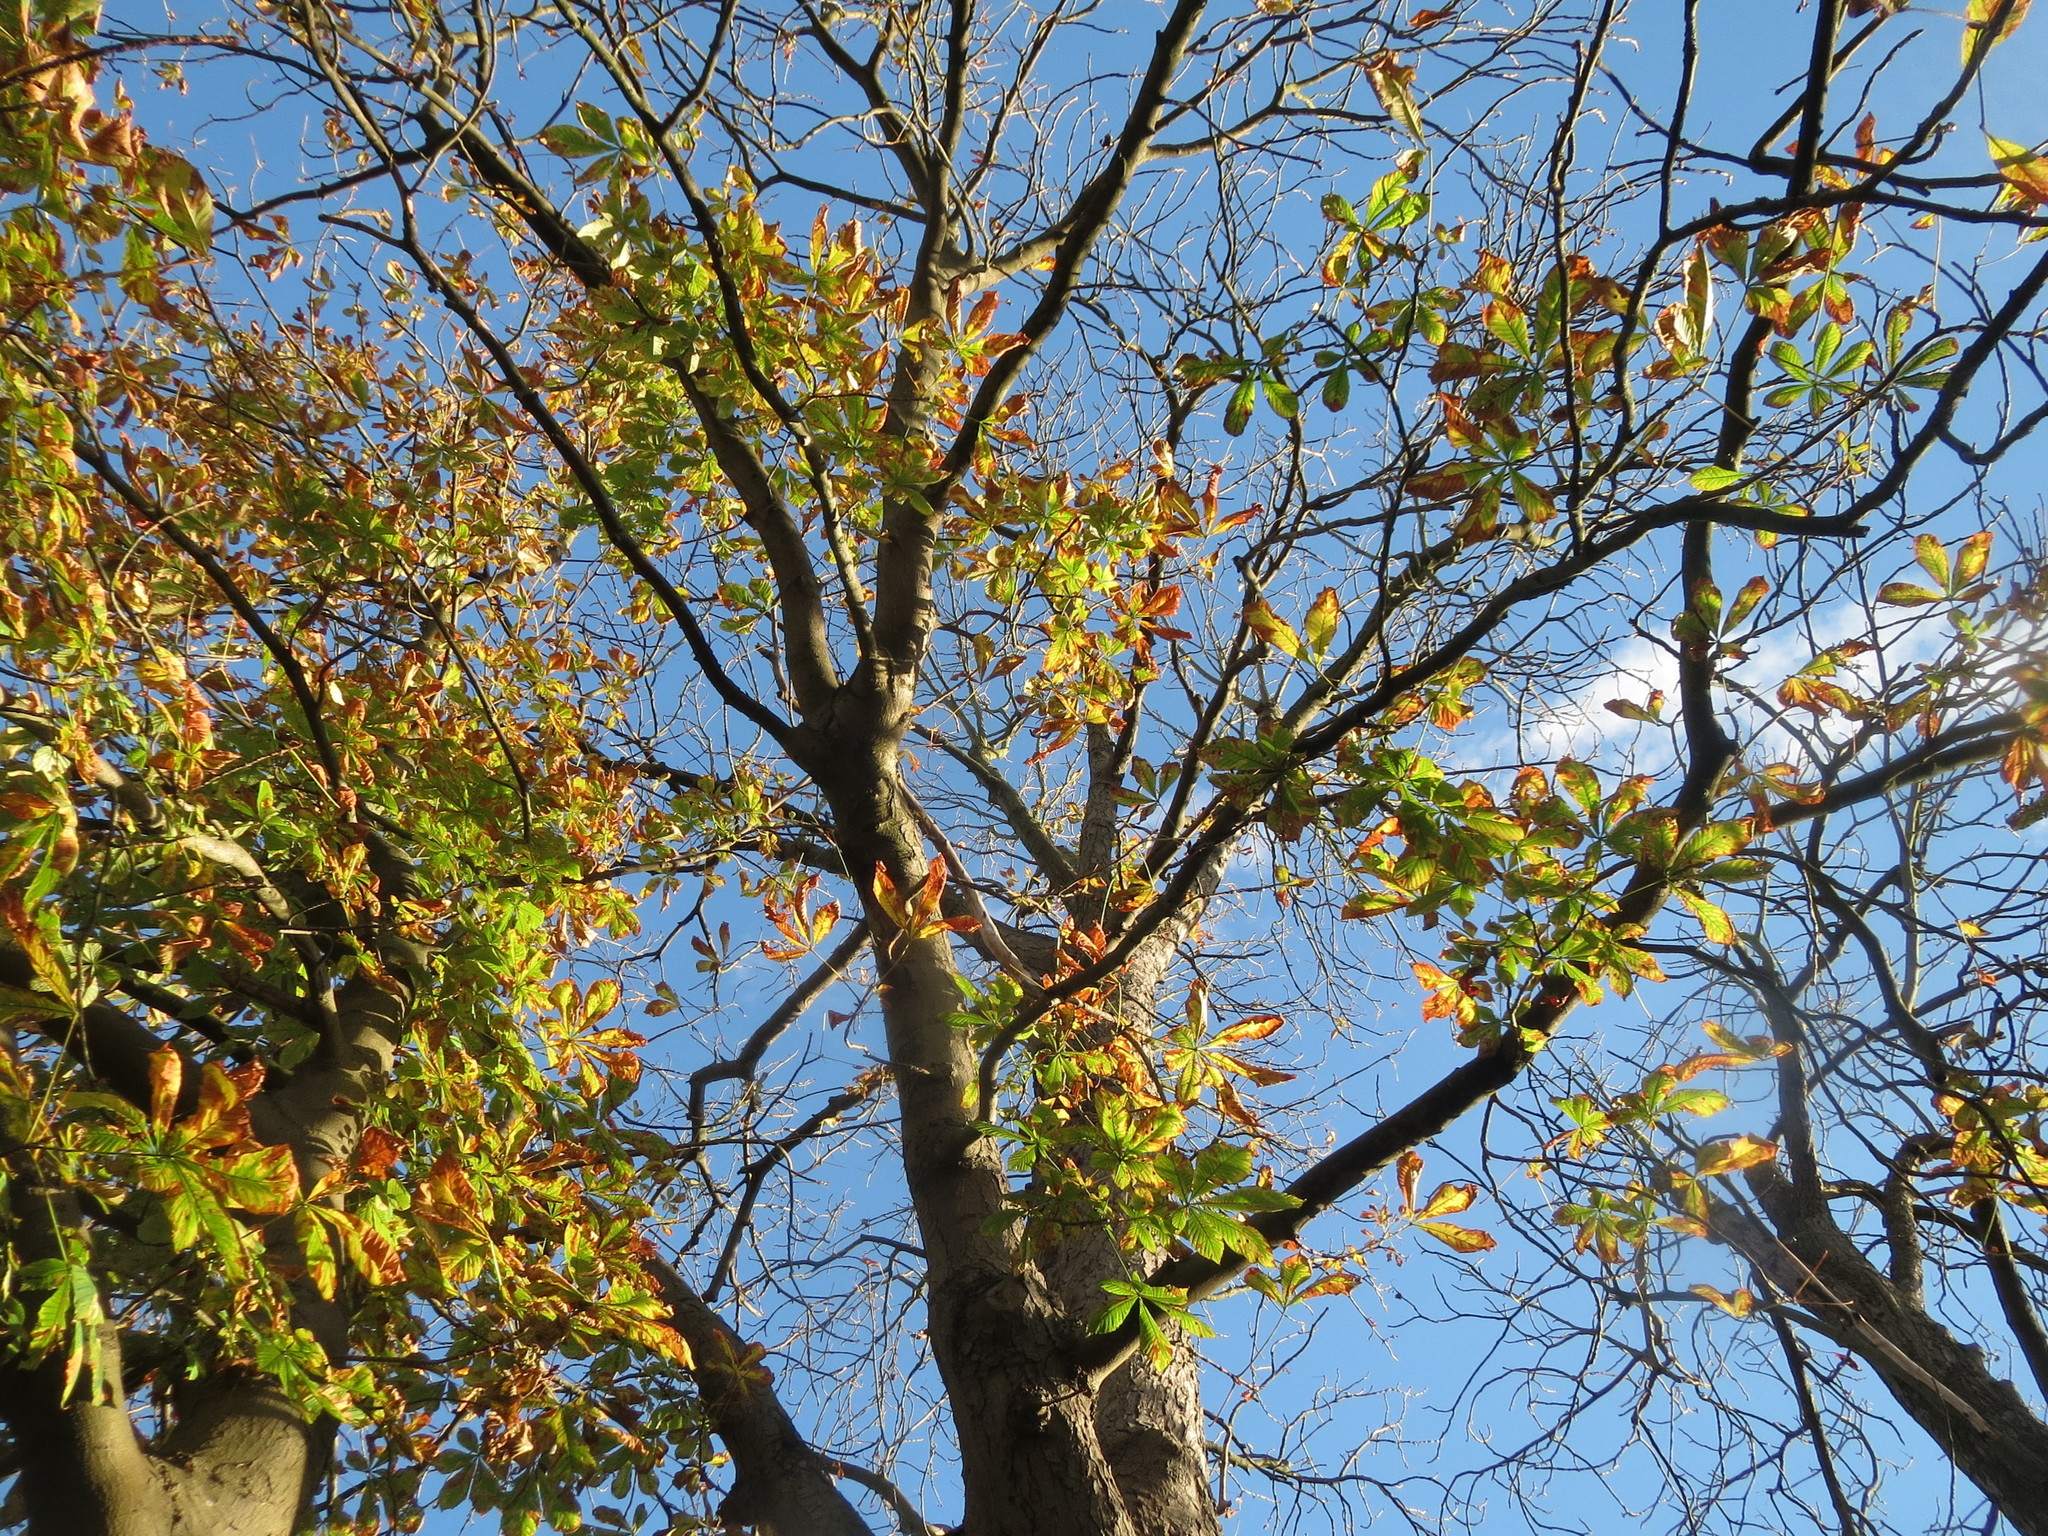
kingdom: Plantae
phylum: Tracheophyta
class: Magnoliopsida
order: Sapindales
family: Sapindaceae
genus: Aesculus
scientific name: Aesculus hippocastanum
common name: Horse-chestnut
